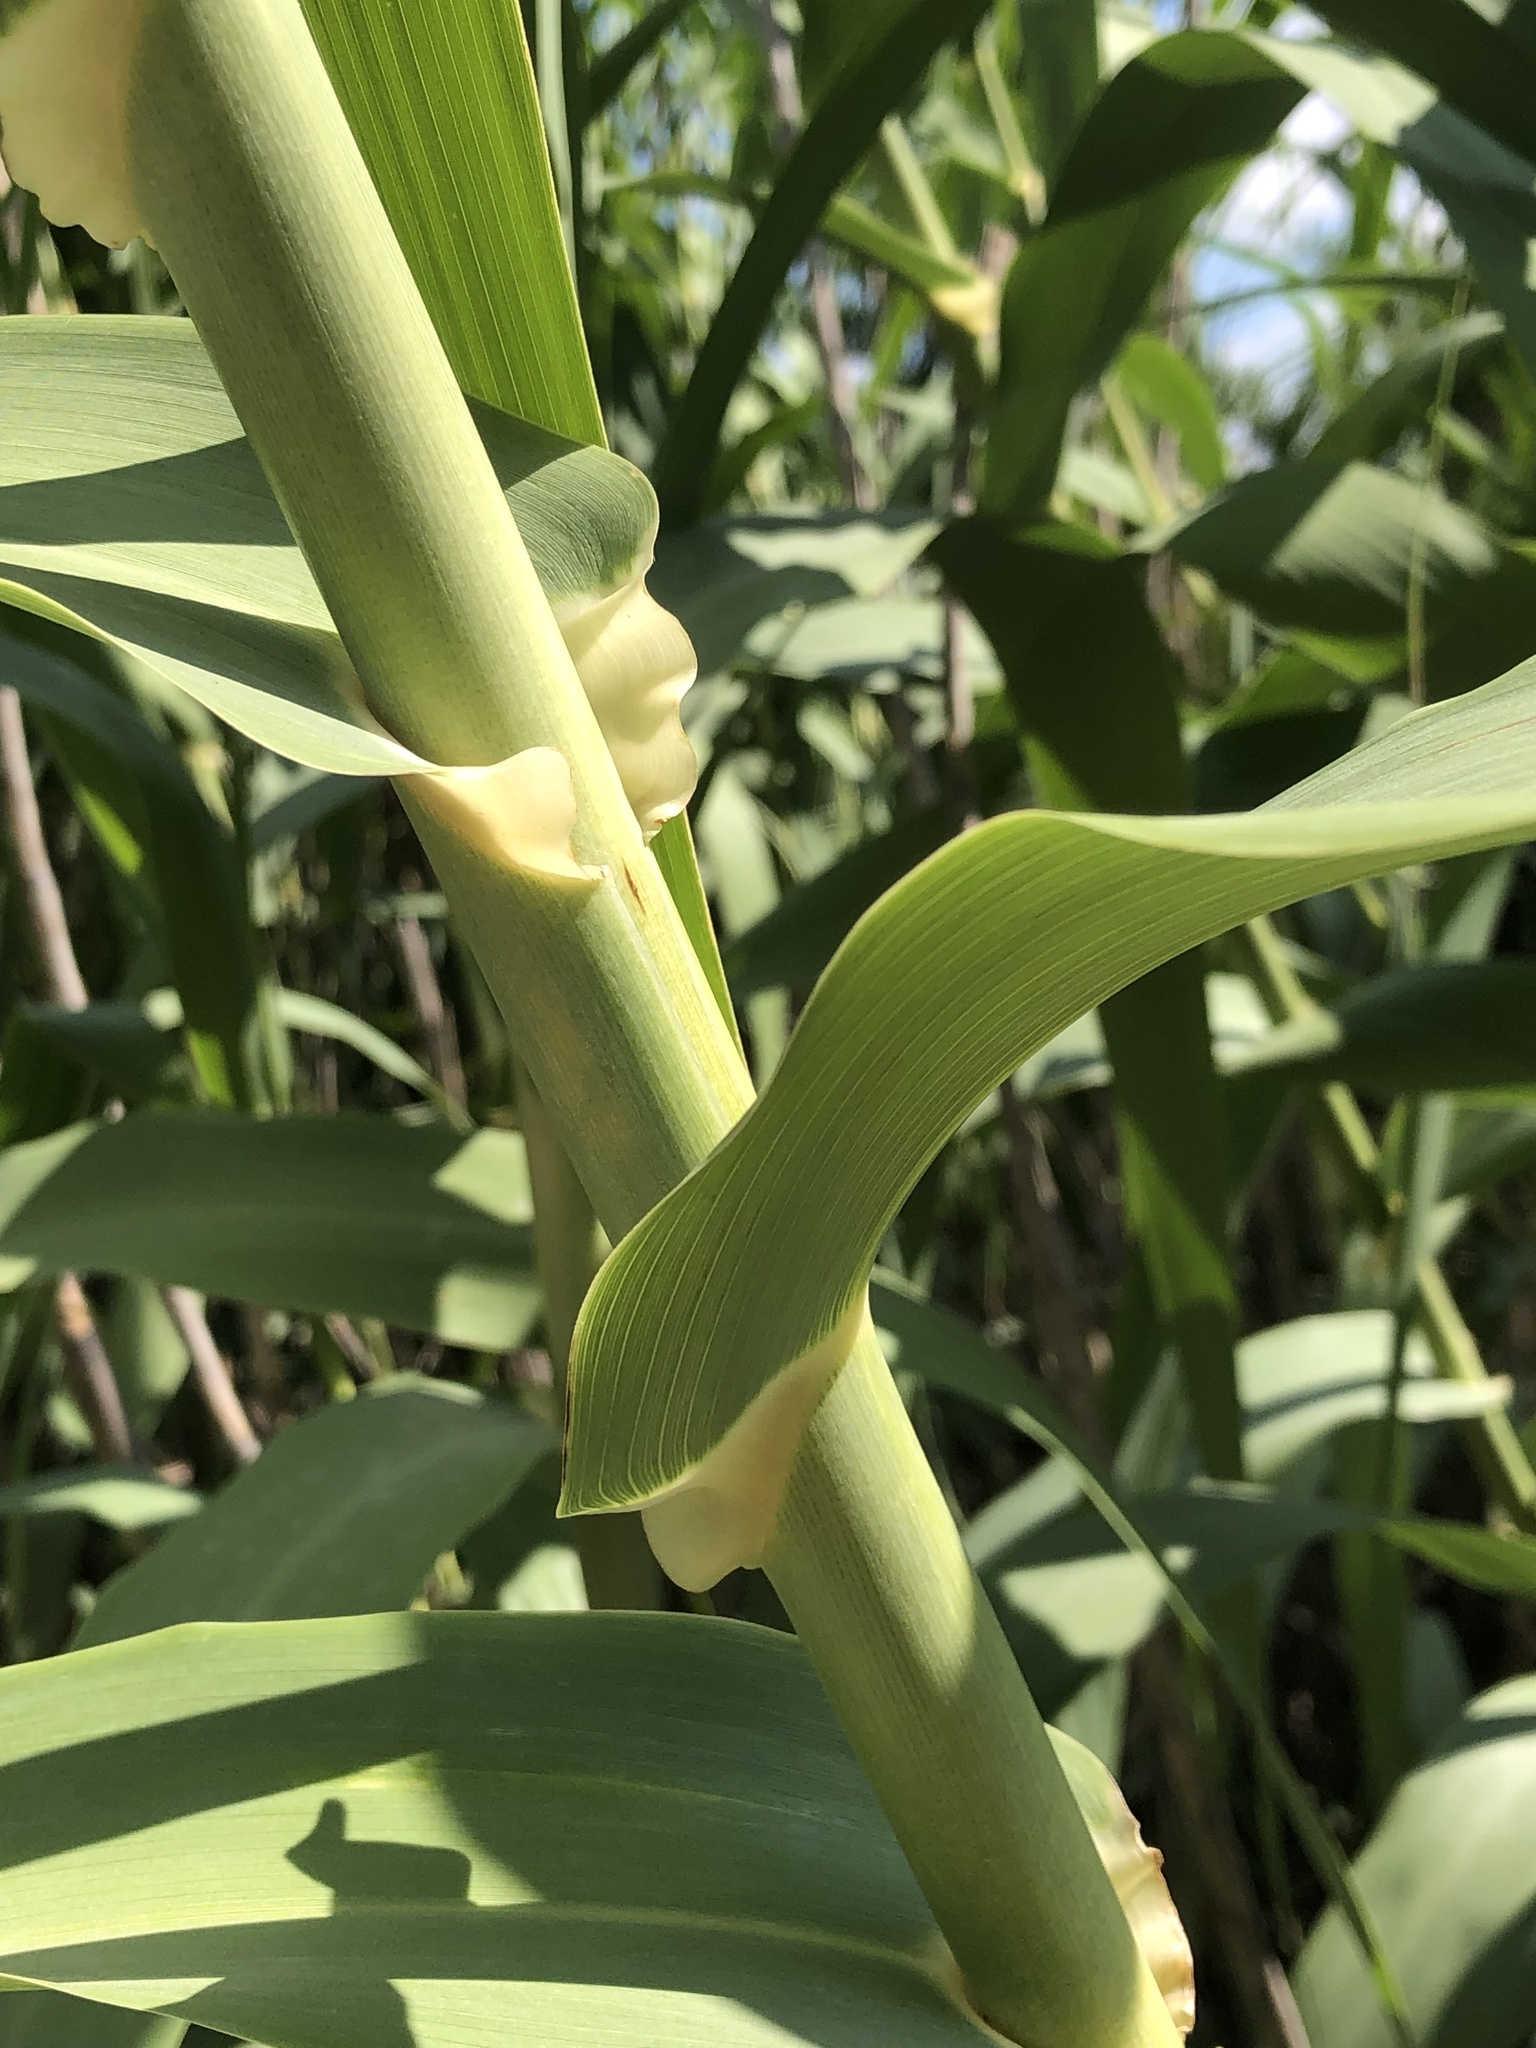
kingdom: Plantae
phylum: Tracheophyta
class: Liliopsida
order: Poales
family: Poaceae
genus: Arundo
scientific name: Arundo donax
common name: Giant reed
